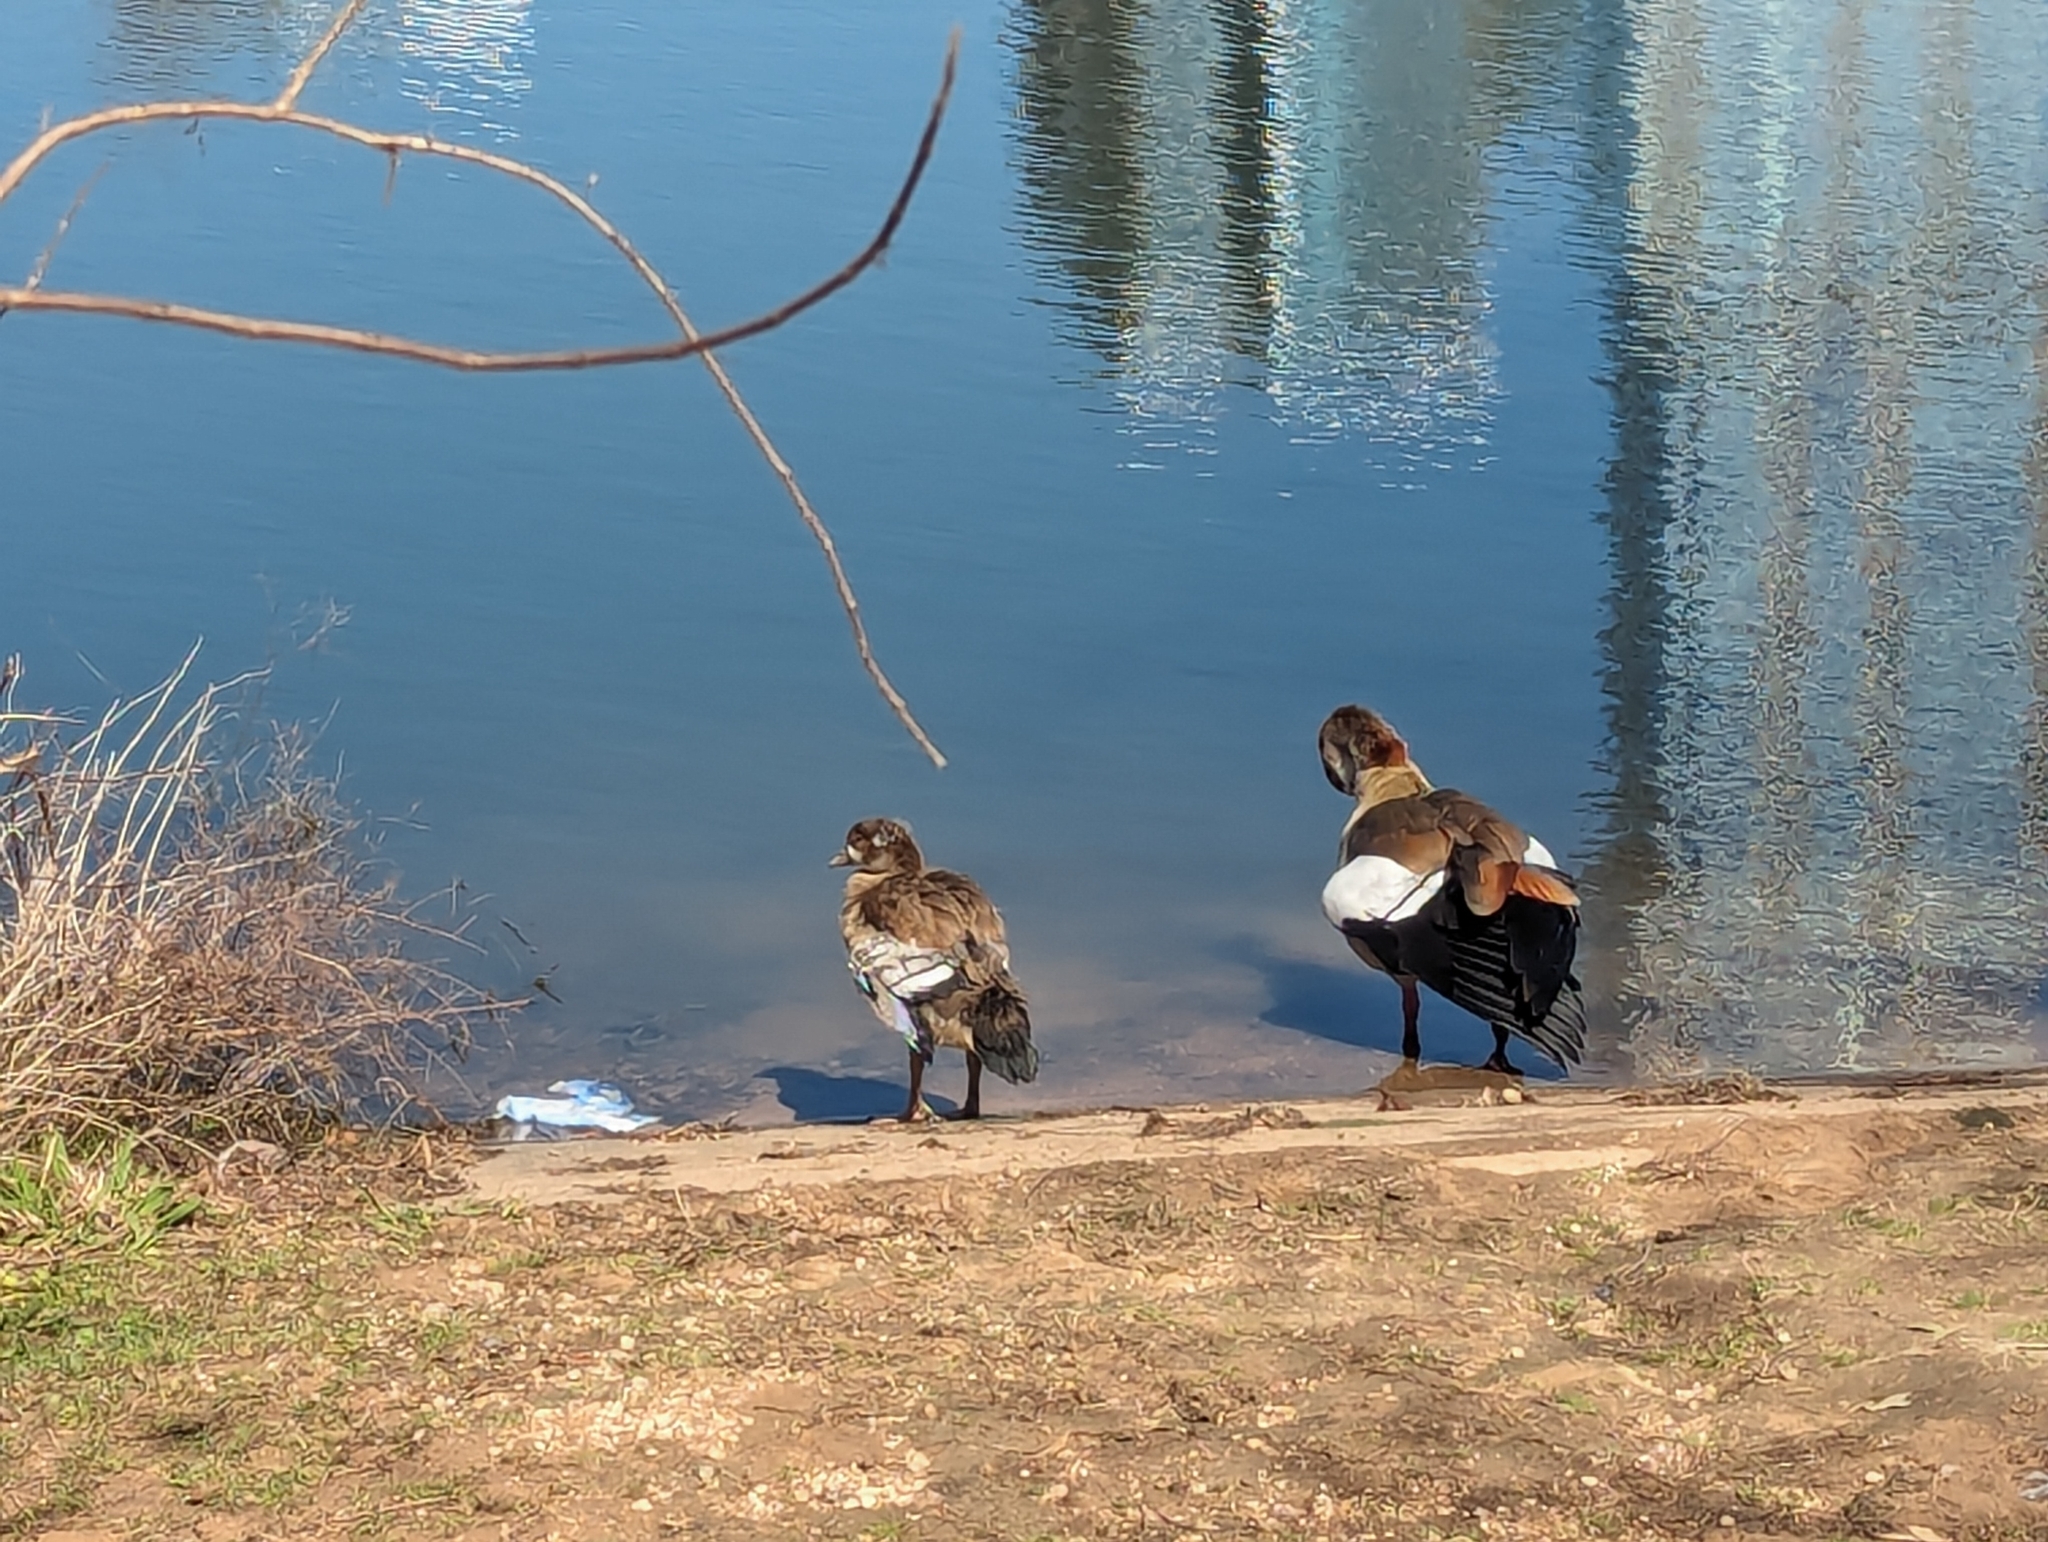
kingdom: Animalia
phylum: Chordata
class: Aves
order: Anseriformes
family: Anatidae
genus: Alopochen
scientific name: Alopochen aegyptiaca
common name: Egyptian goose
